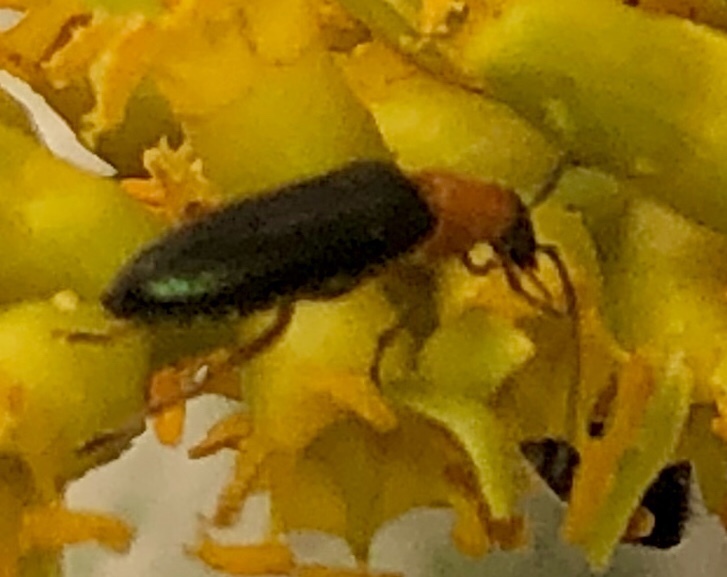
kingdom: Animalia
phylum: Arthropoda
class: Insecta
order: Coleoptera
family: Oedemeridae
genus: Ananca
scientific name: Ananca bicolor
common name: Red-black false blister-beetle
